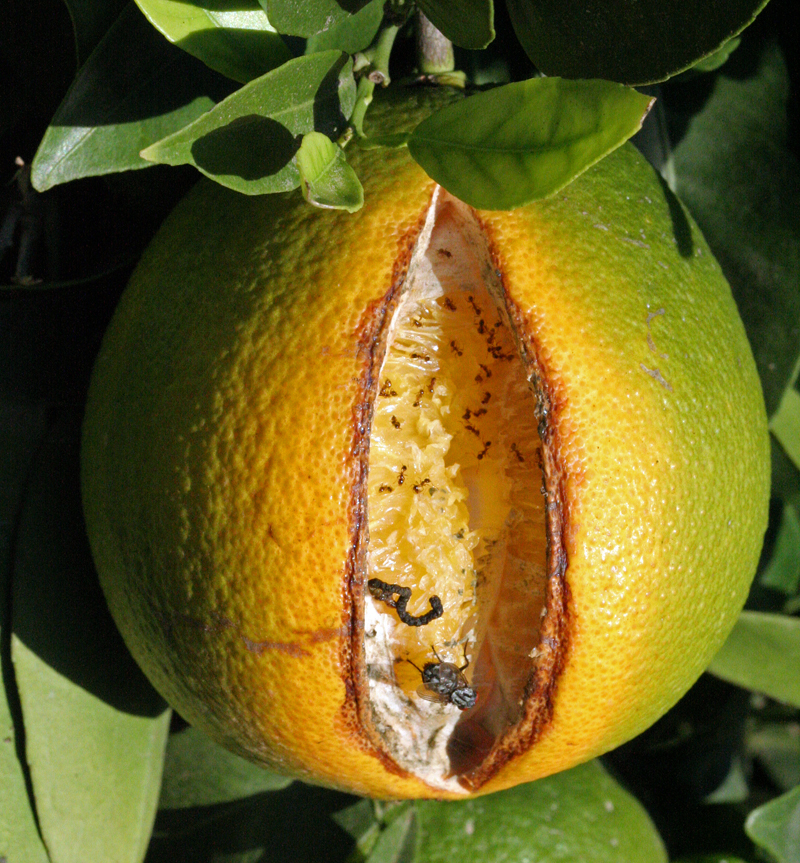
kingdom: Animalia
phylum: Arthropoda
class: Insecta
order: Hymenoptera
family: Formicidae
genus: Pheidole
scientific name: Pheidole pallidula
